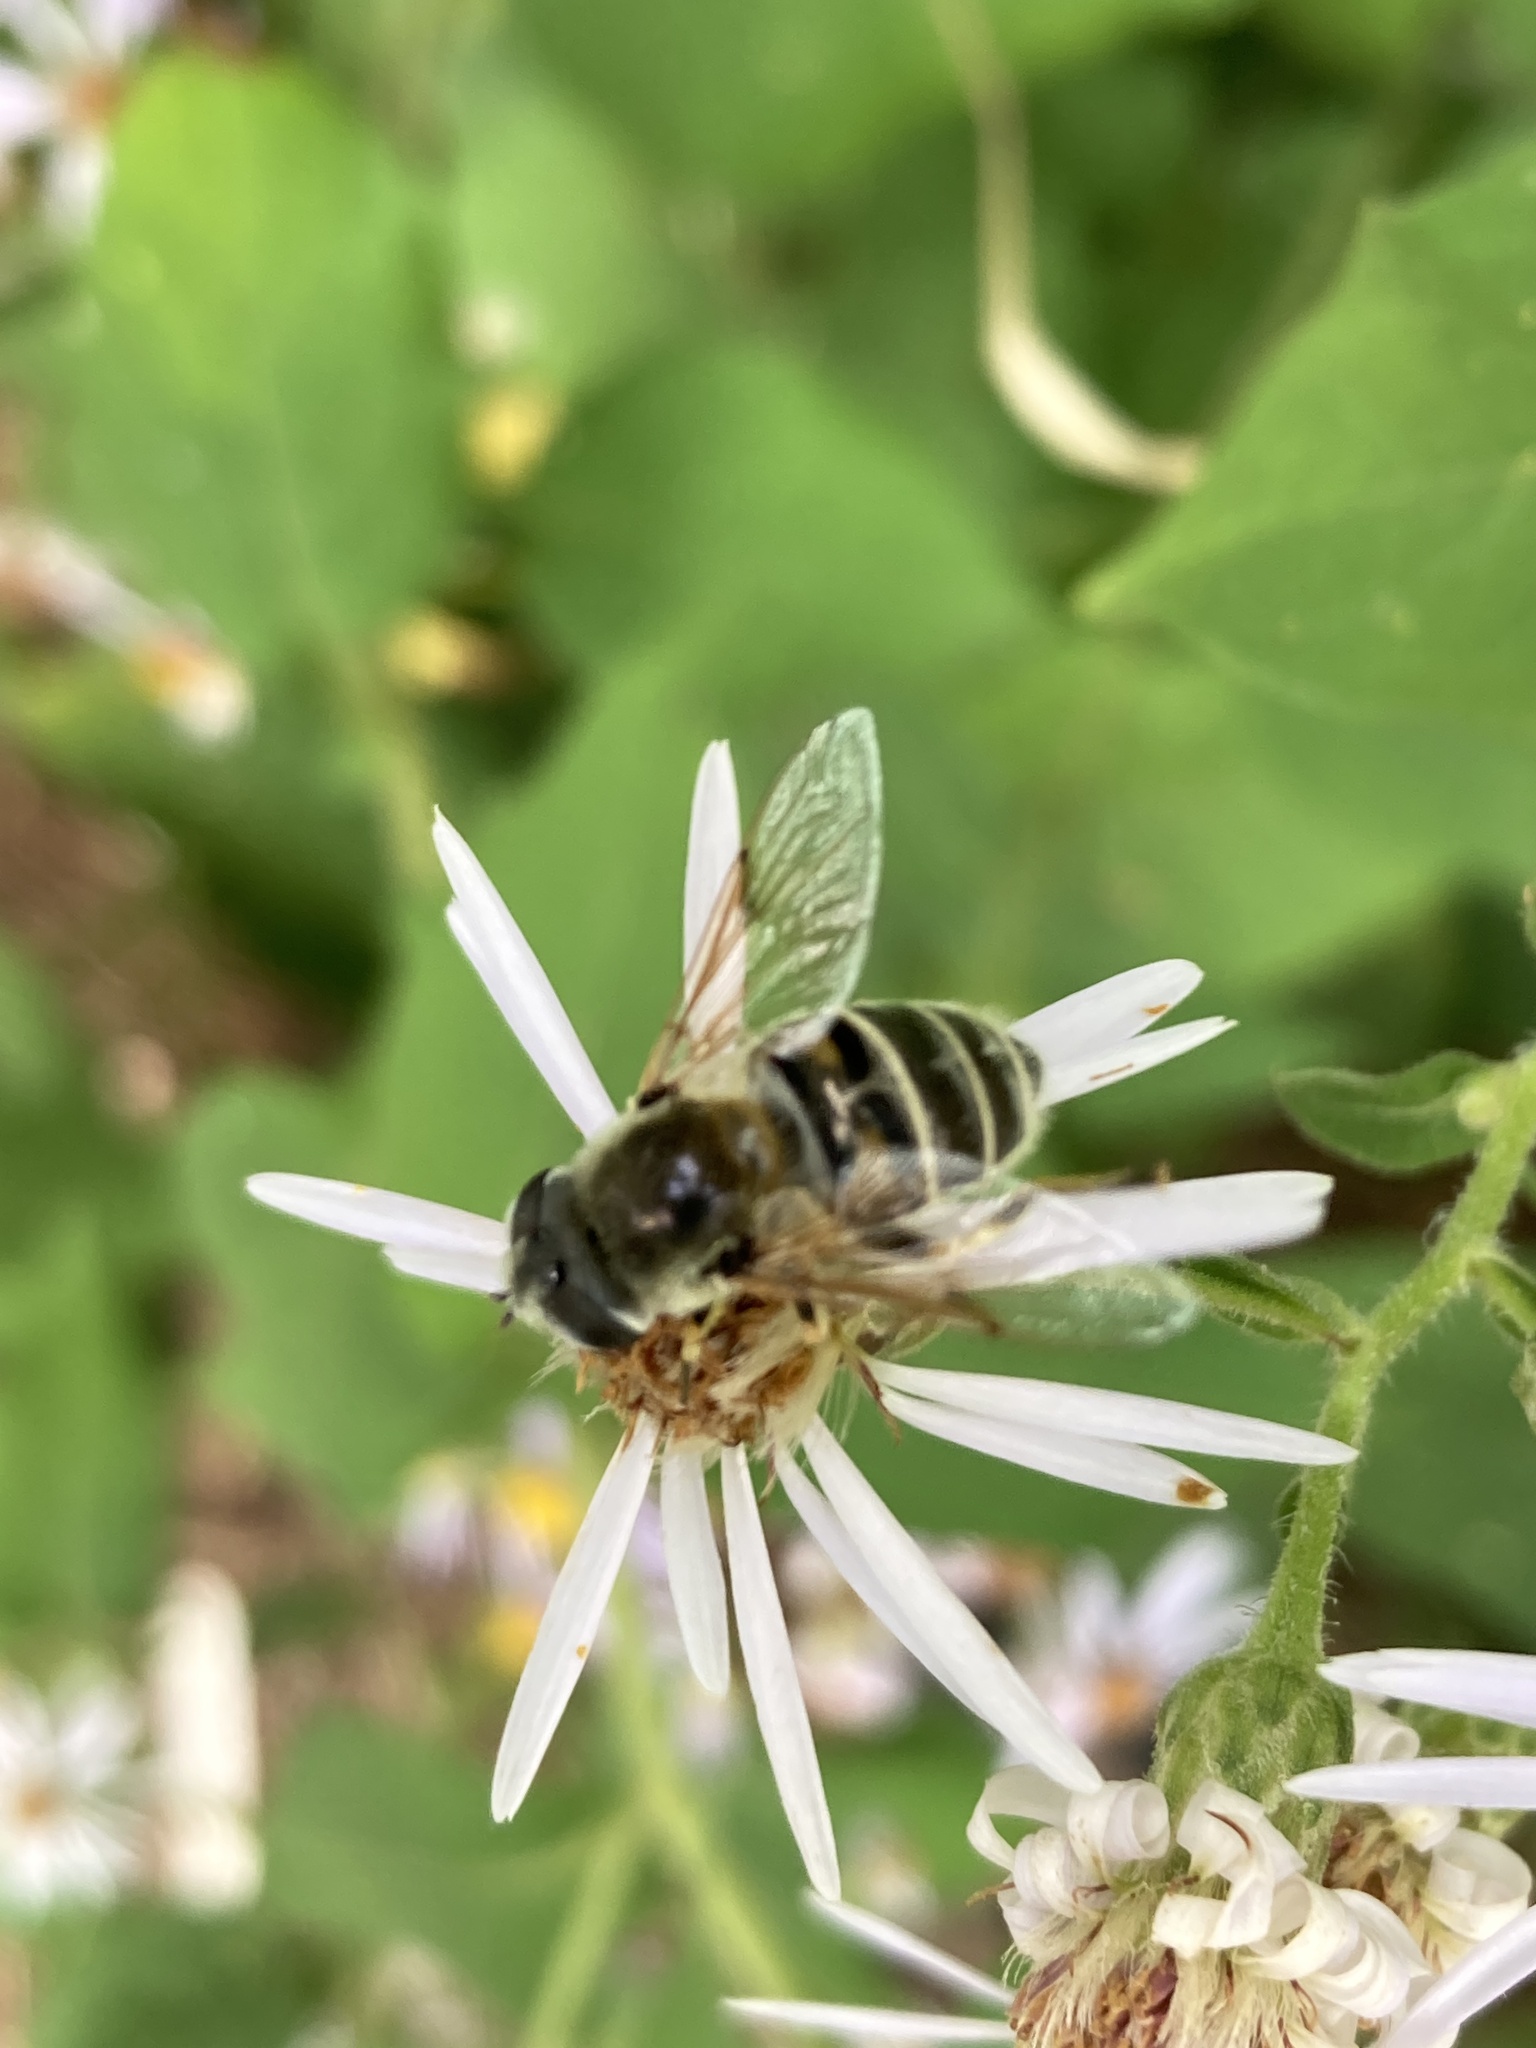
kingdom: Animalia
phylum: Arthropoda
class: Insecta
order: Diptera
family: Syrphidae
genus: Eristalis
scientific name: Eristalis stipator
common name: Yellow-shouldered drone fly
